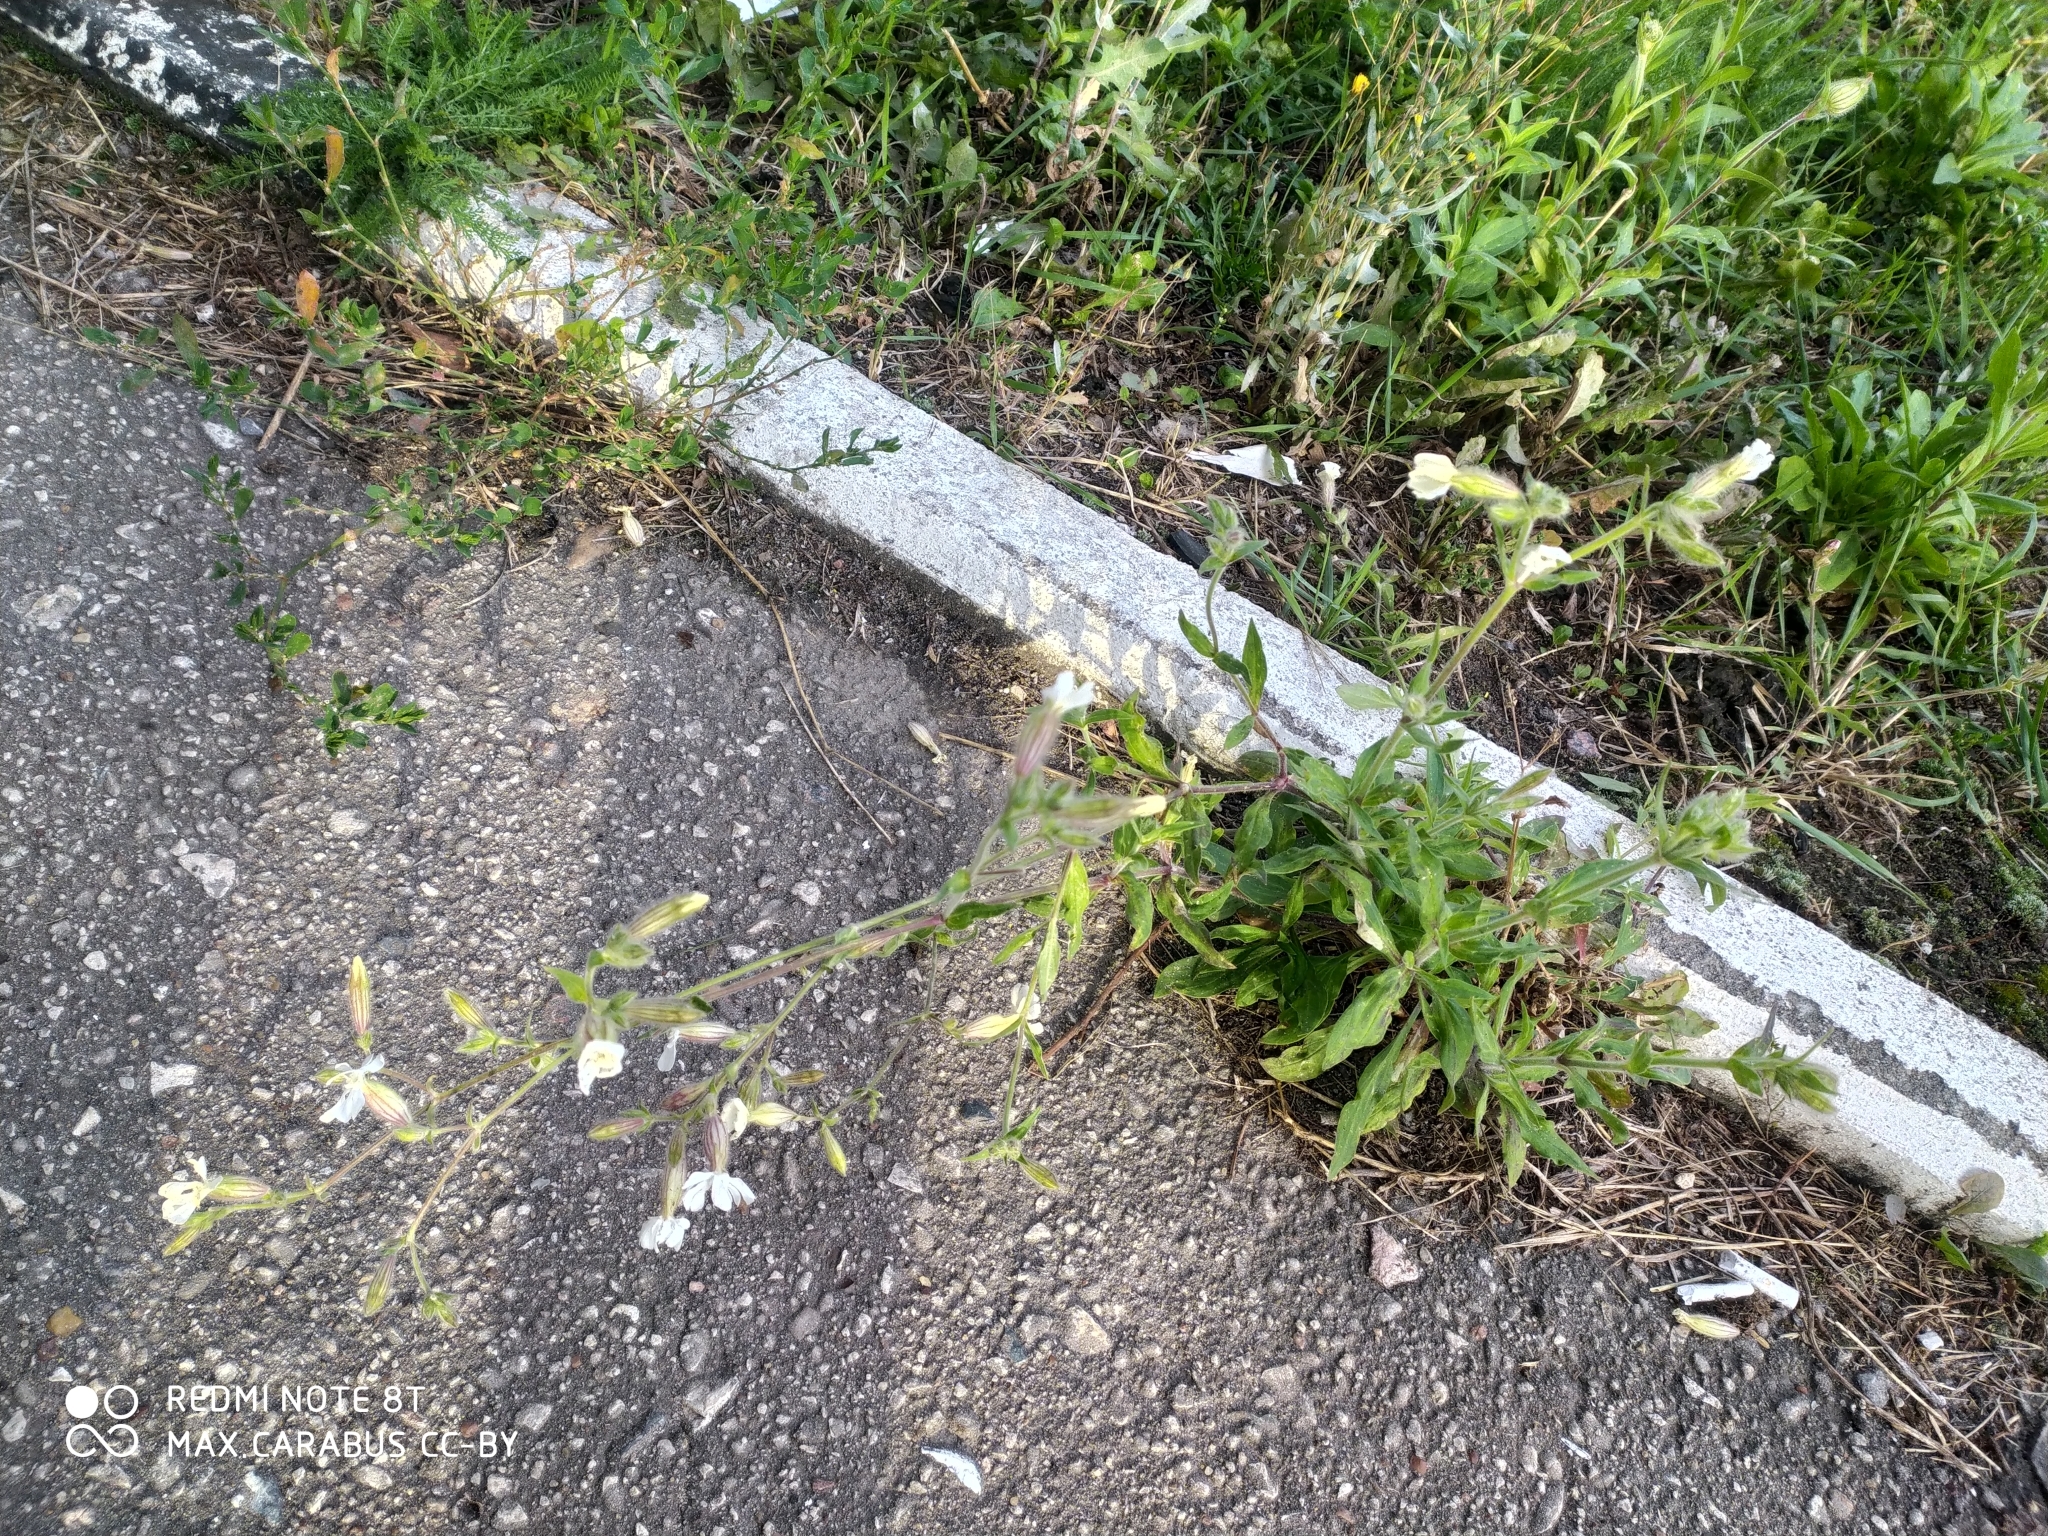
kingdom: Plantae
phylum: Tracheophyta
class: Magnoliopsida
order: Caryophyllales
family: Caryophyllaceae
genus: Silene
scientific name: Silene latifolia
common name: White campion
